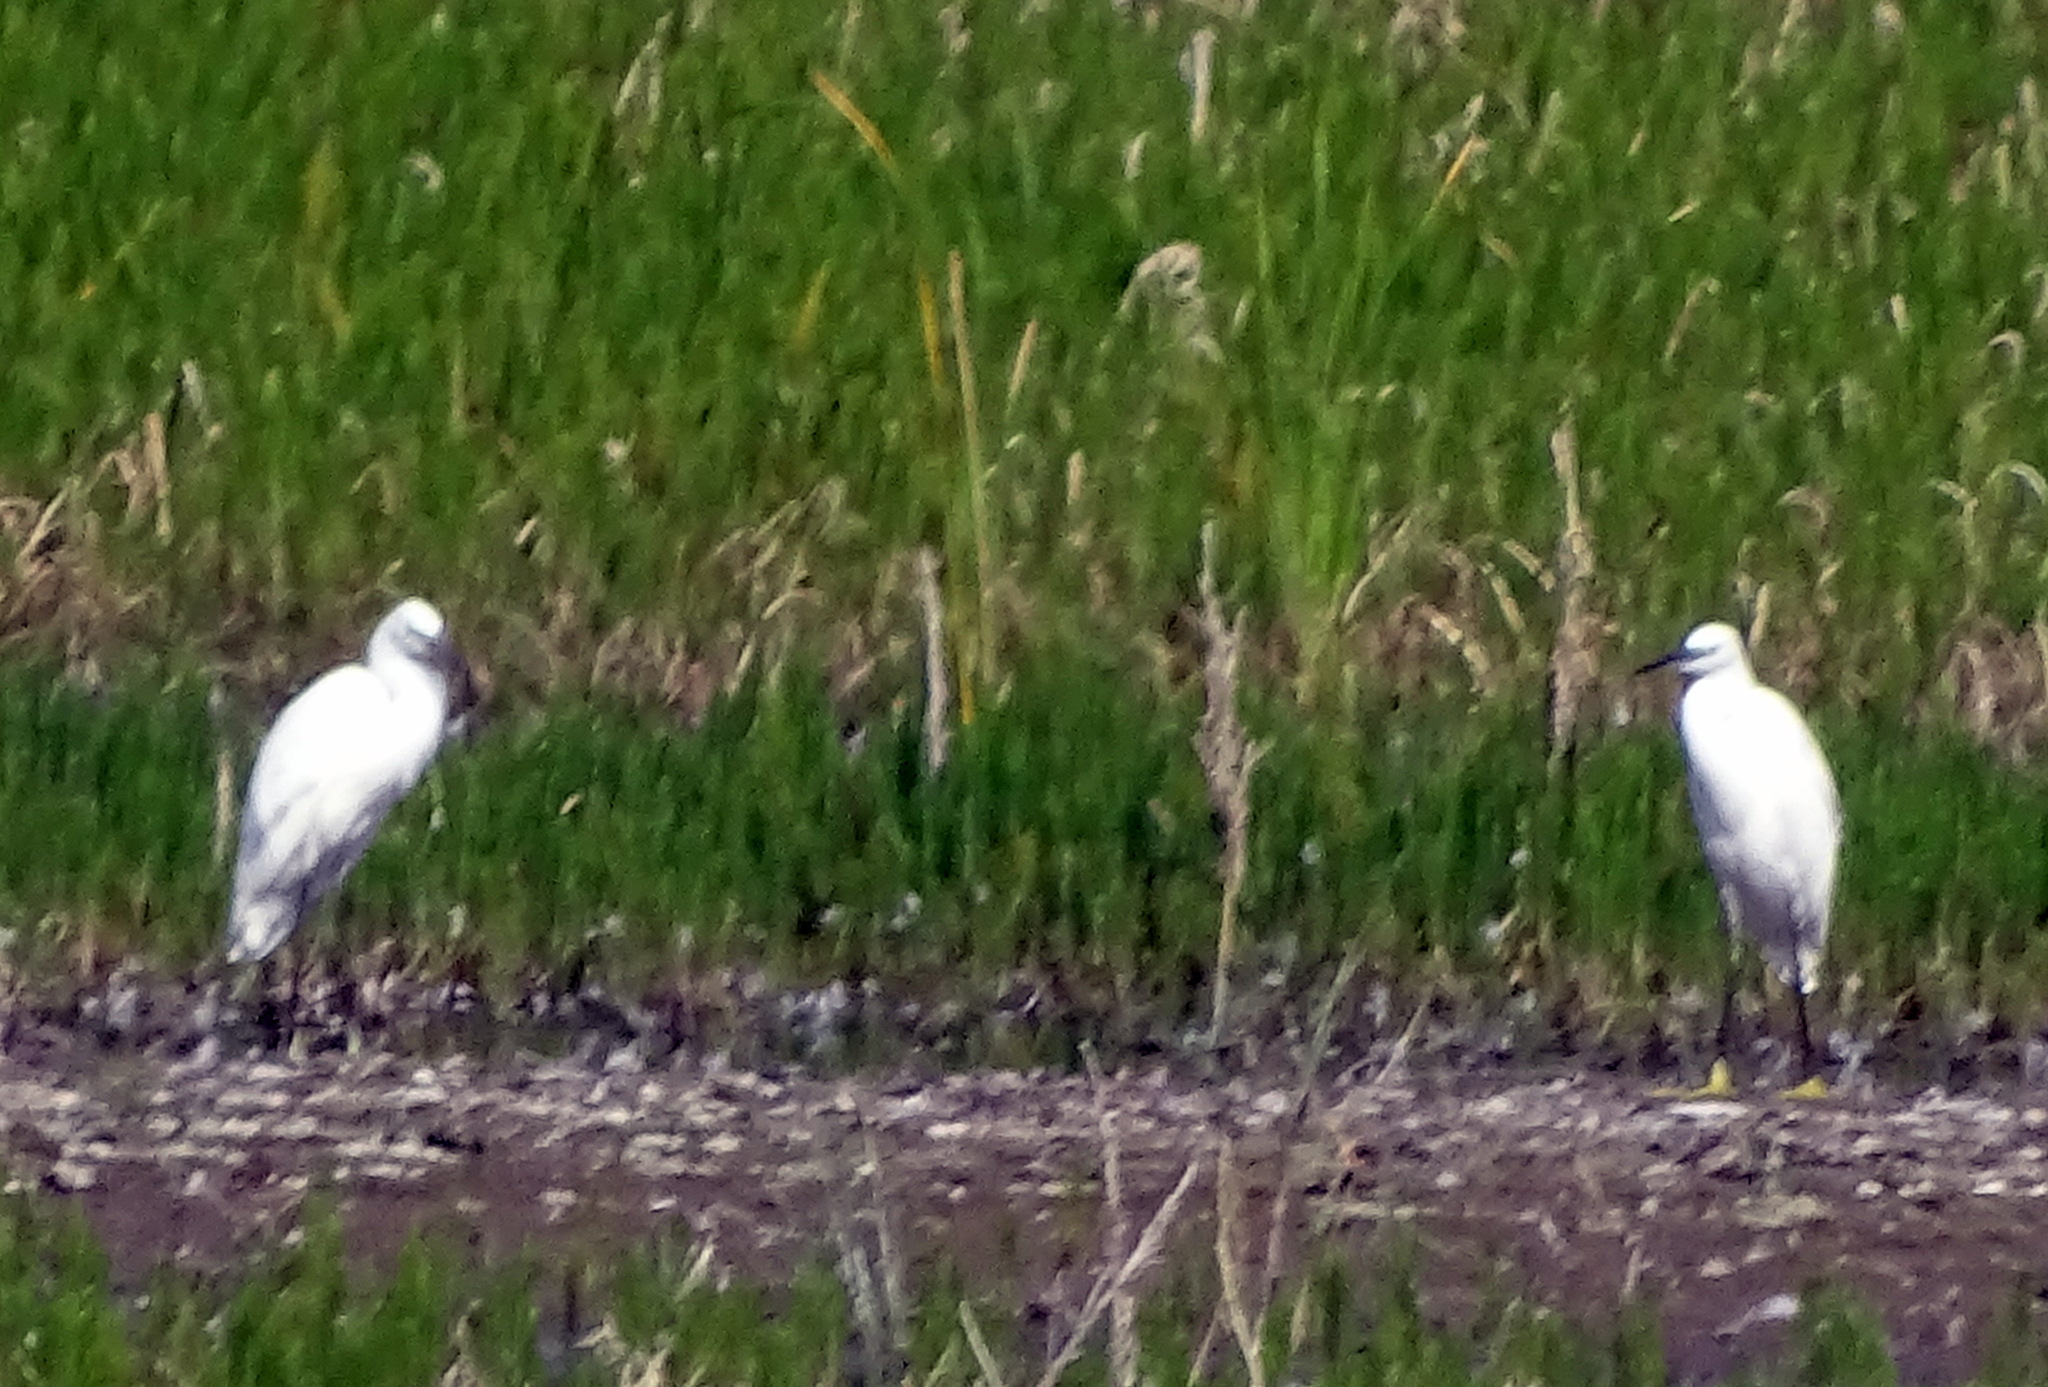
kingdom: Animalia
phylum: Chordata
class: Aves
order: Pelecaniformes
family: Ardeidae
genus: Egretta
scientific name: Egretta garzetta
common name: Little egret
